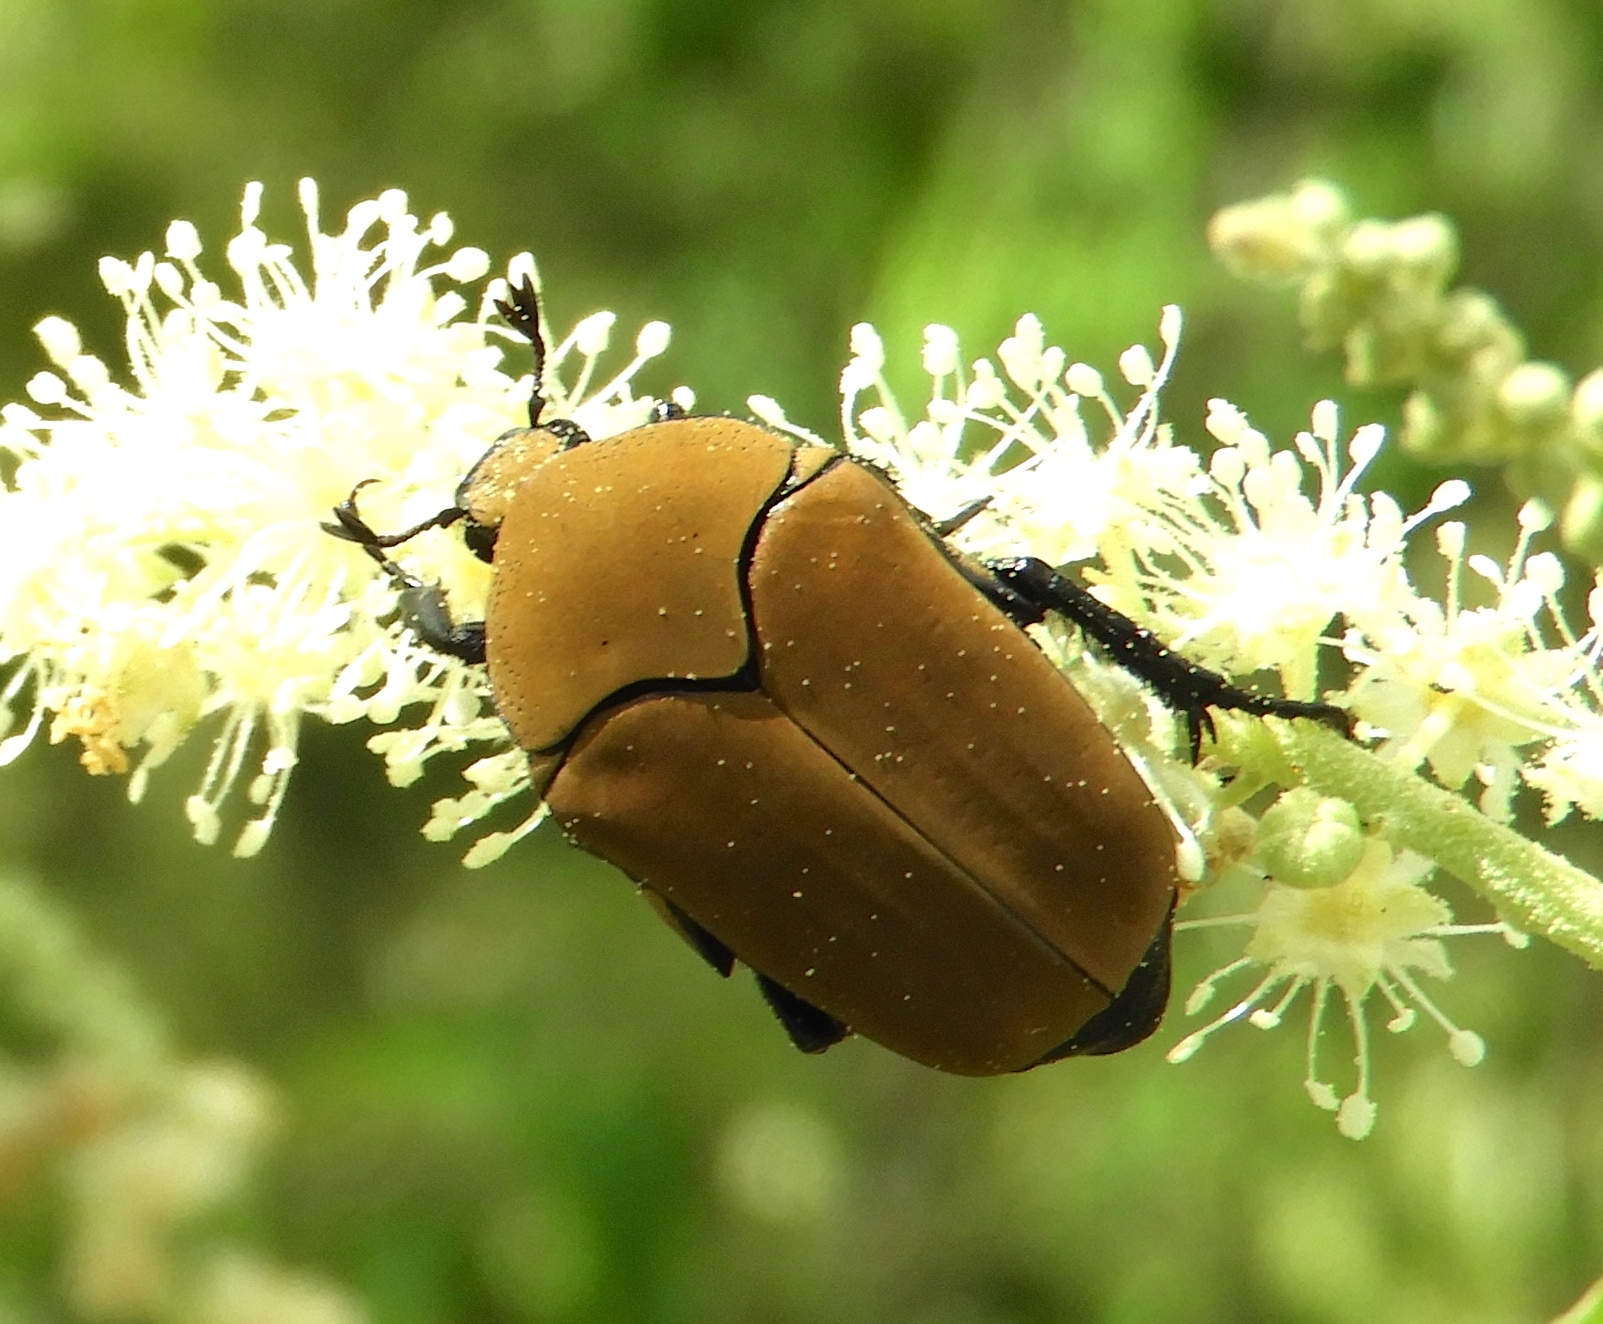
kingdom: Animalia
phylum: Arthropoda
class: Insecta
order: Coleoptera
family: Scarabaeidae
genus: Hologymnetis
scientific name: Hologymnetis cinerea
